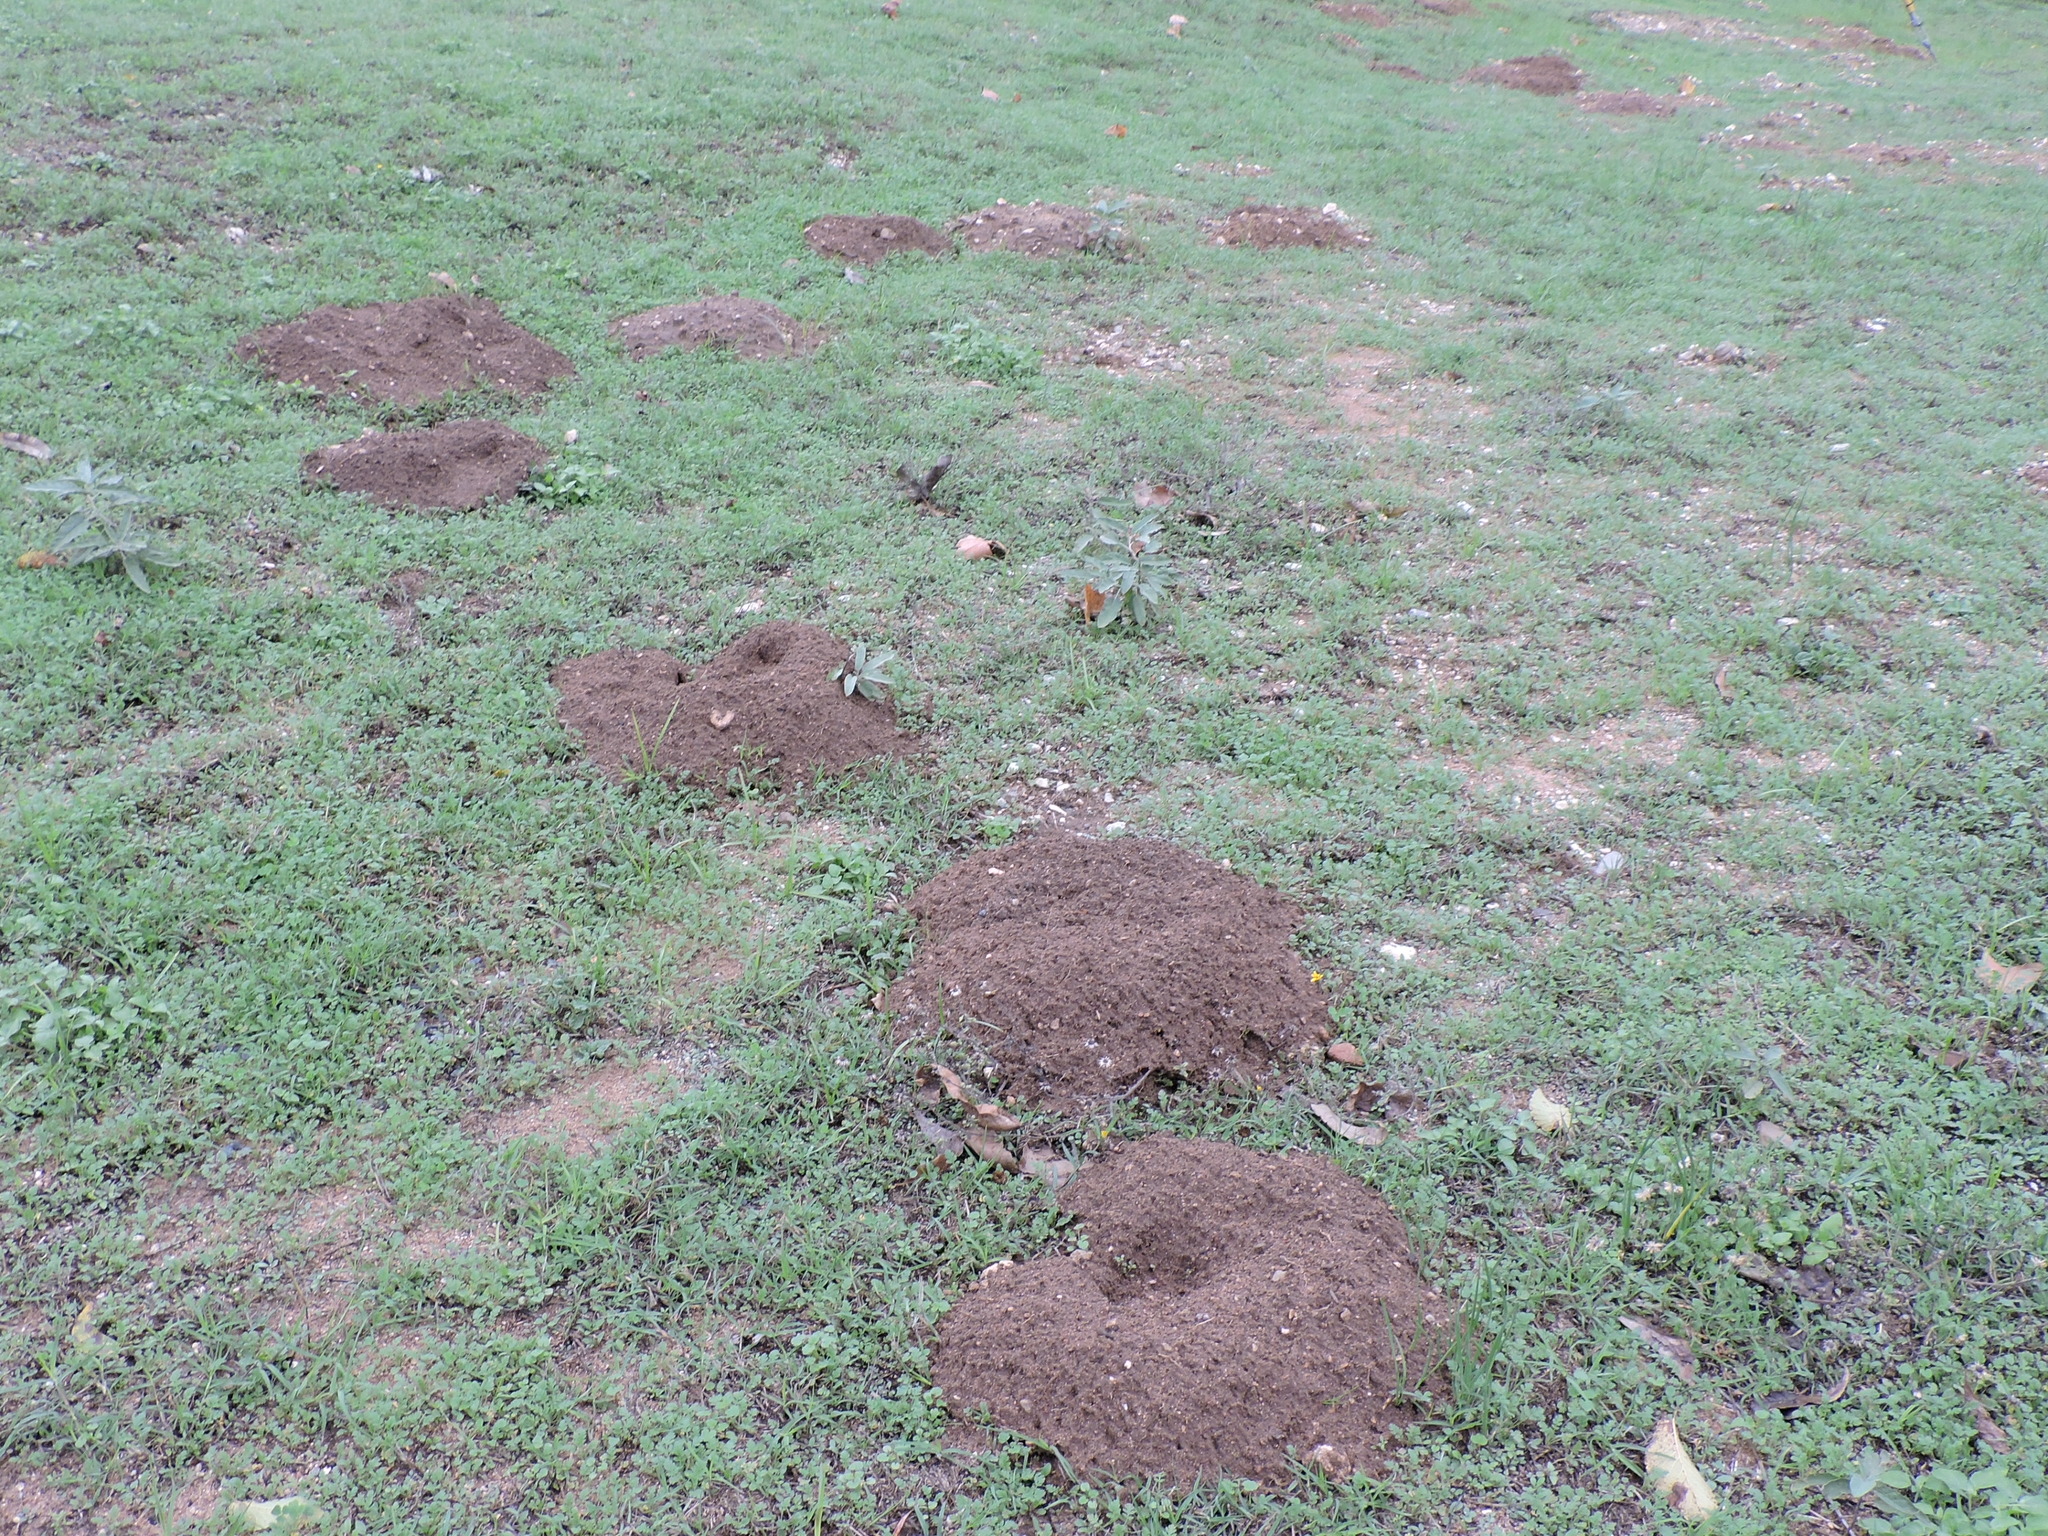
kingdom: Animalia
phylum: Chordata
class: Mammalia
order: Rodentia
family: Geomyidae
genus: Geomys
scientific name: Geomys texensis
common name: Llano pocket gopher
